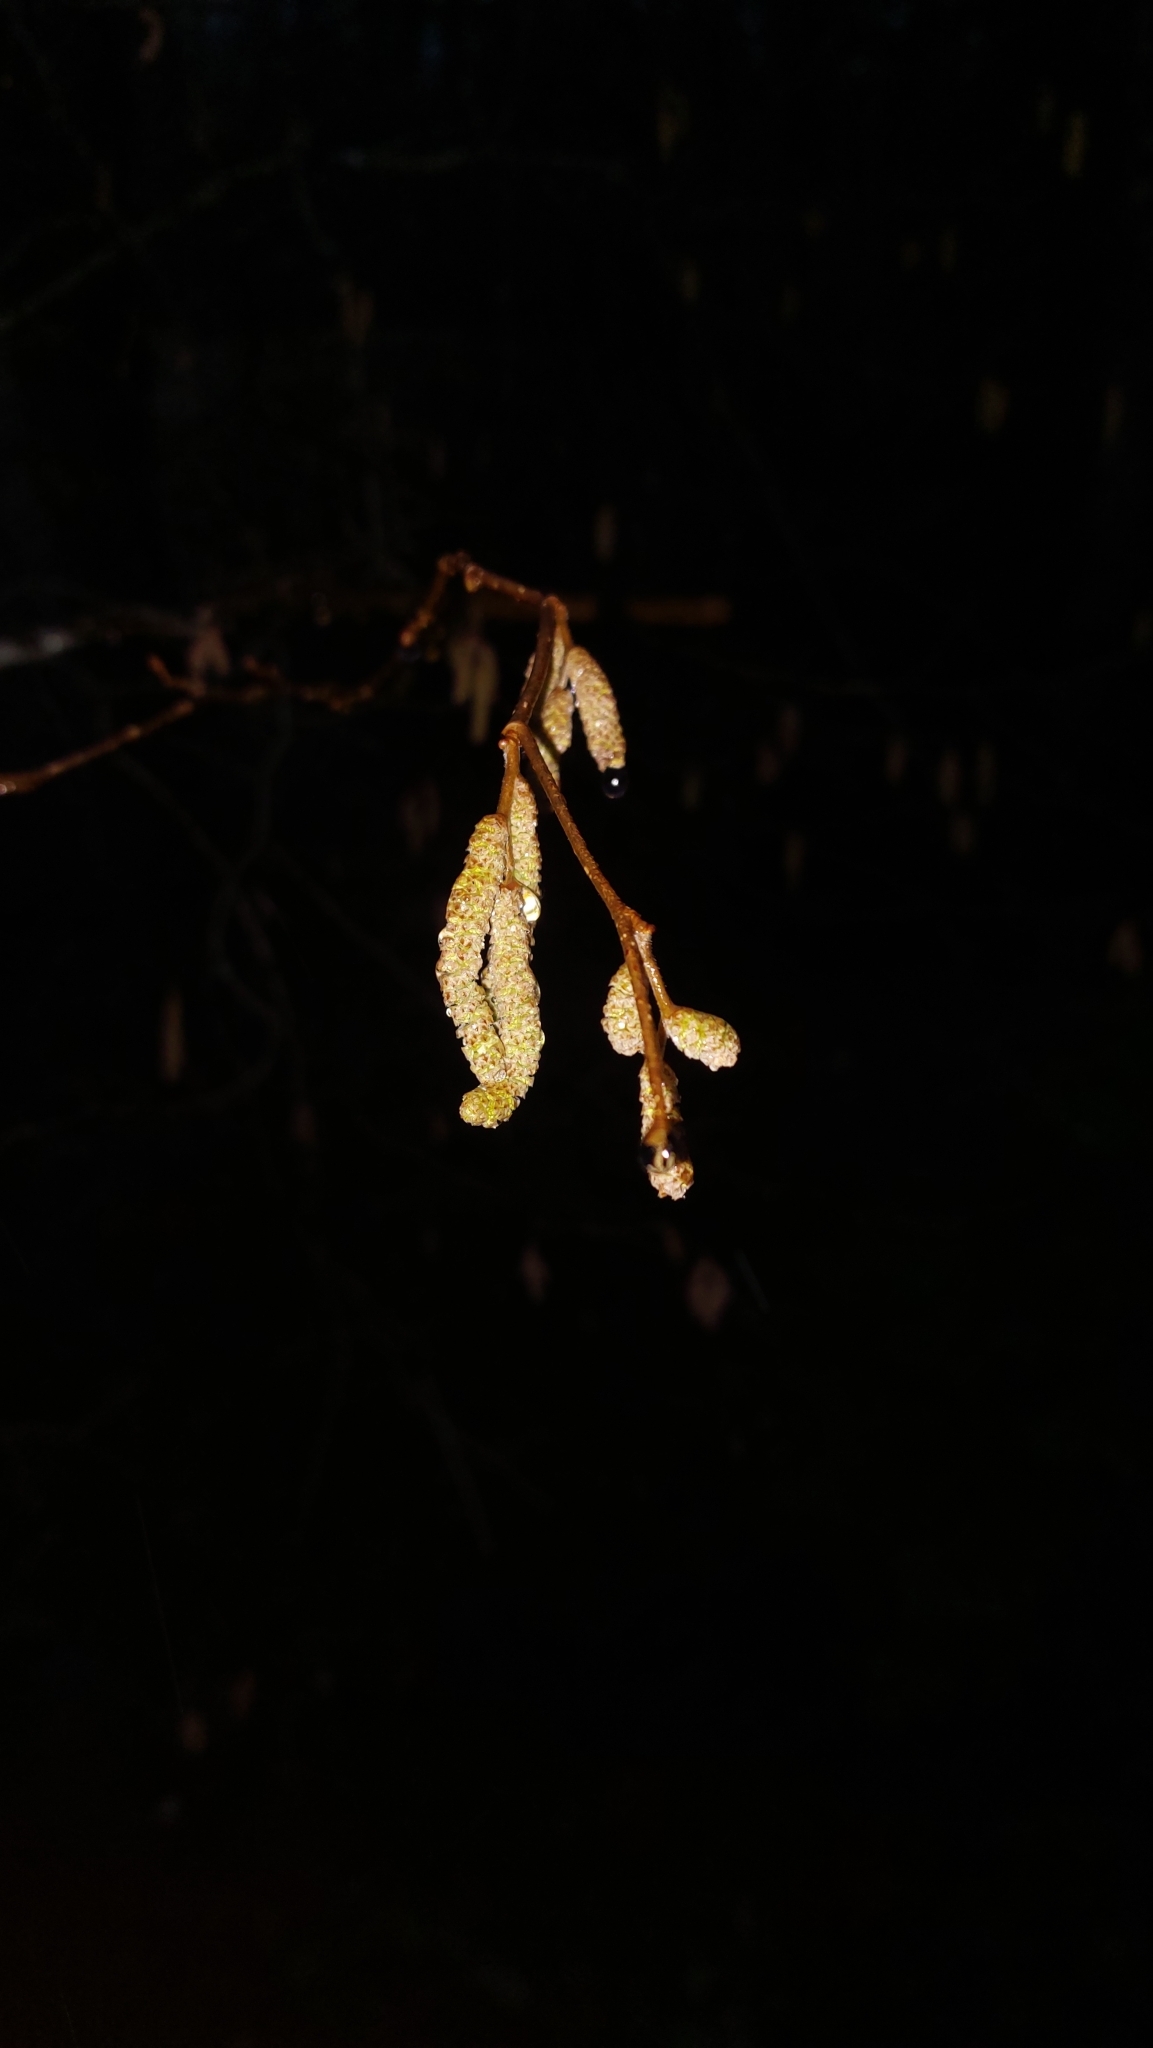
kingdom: Plantae
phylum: Tracheophyta
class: Magnoliopsida
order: Fagales
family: Betulaceae
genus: Corylus
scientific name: Corylus avellana
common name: European hazel
